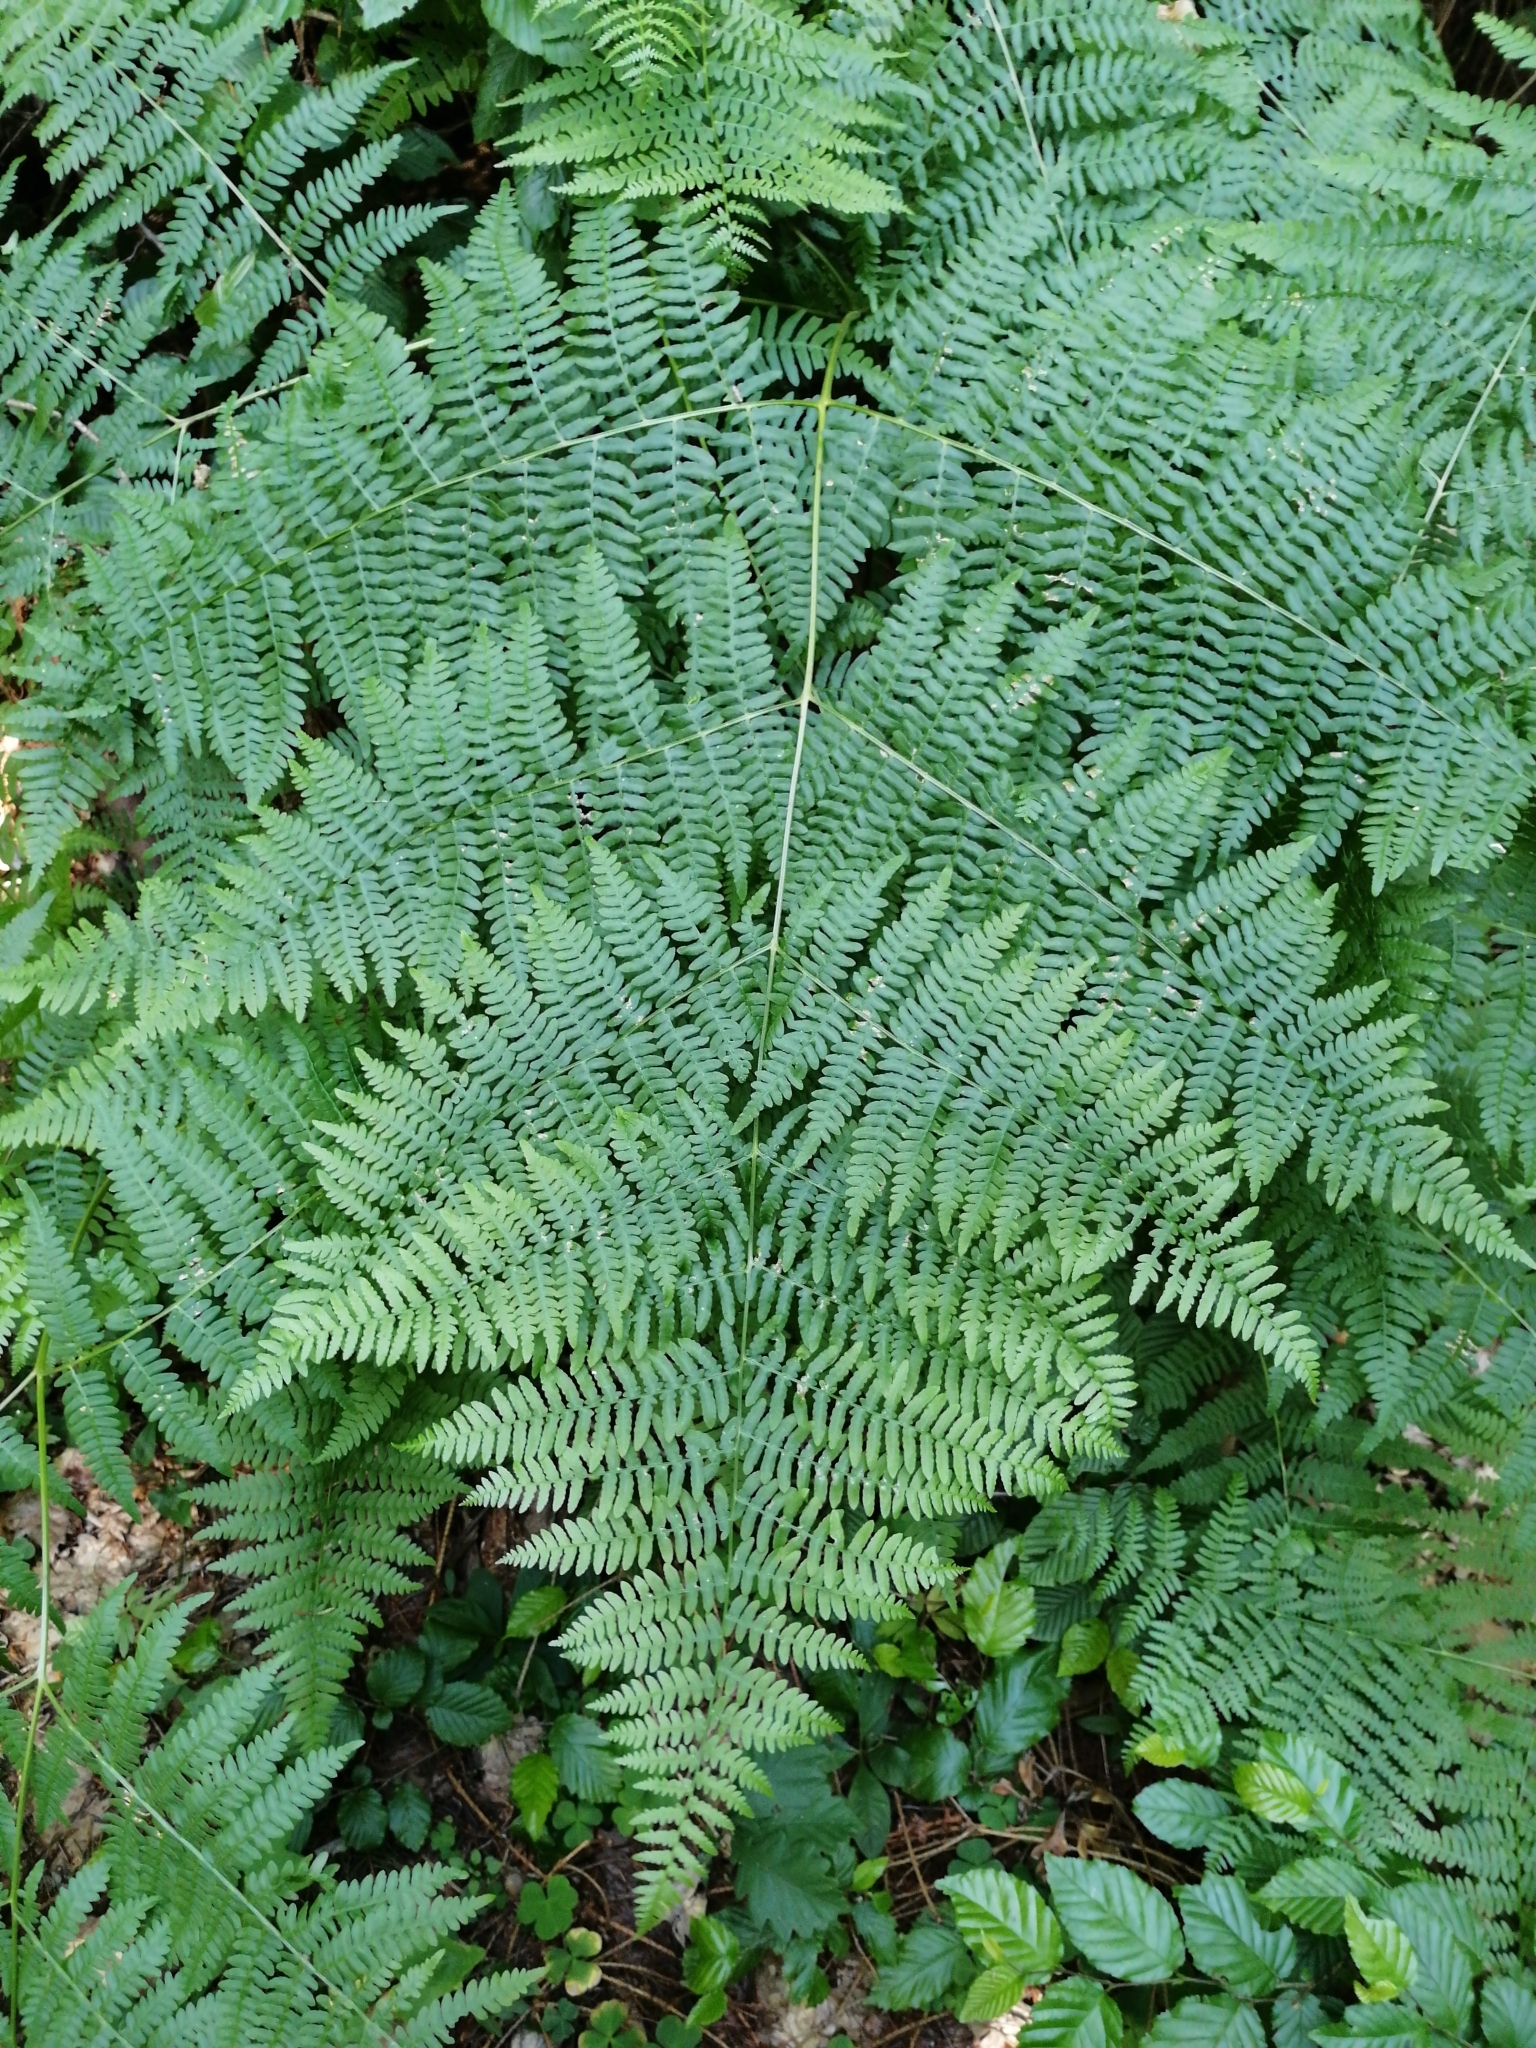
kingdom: Plantae
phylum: Tracheophyta
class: Polypodiopsida
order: Polypodiales
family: Dennstaedtiaceae
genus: Pteridium
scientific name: Pteridium aquilinum
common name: Bracken
